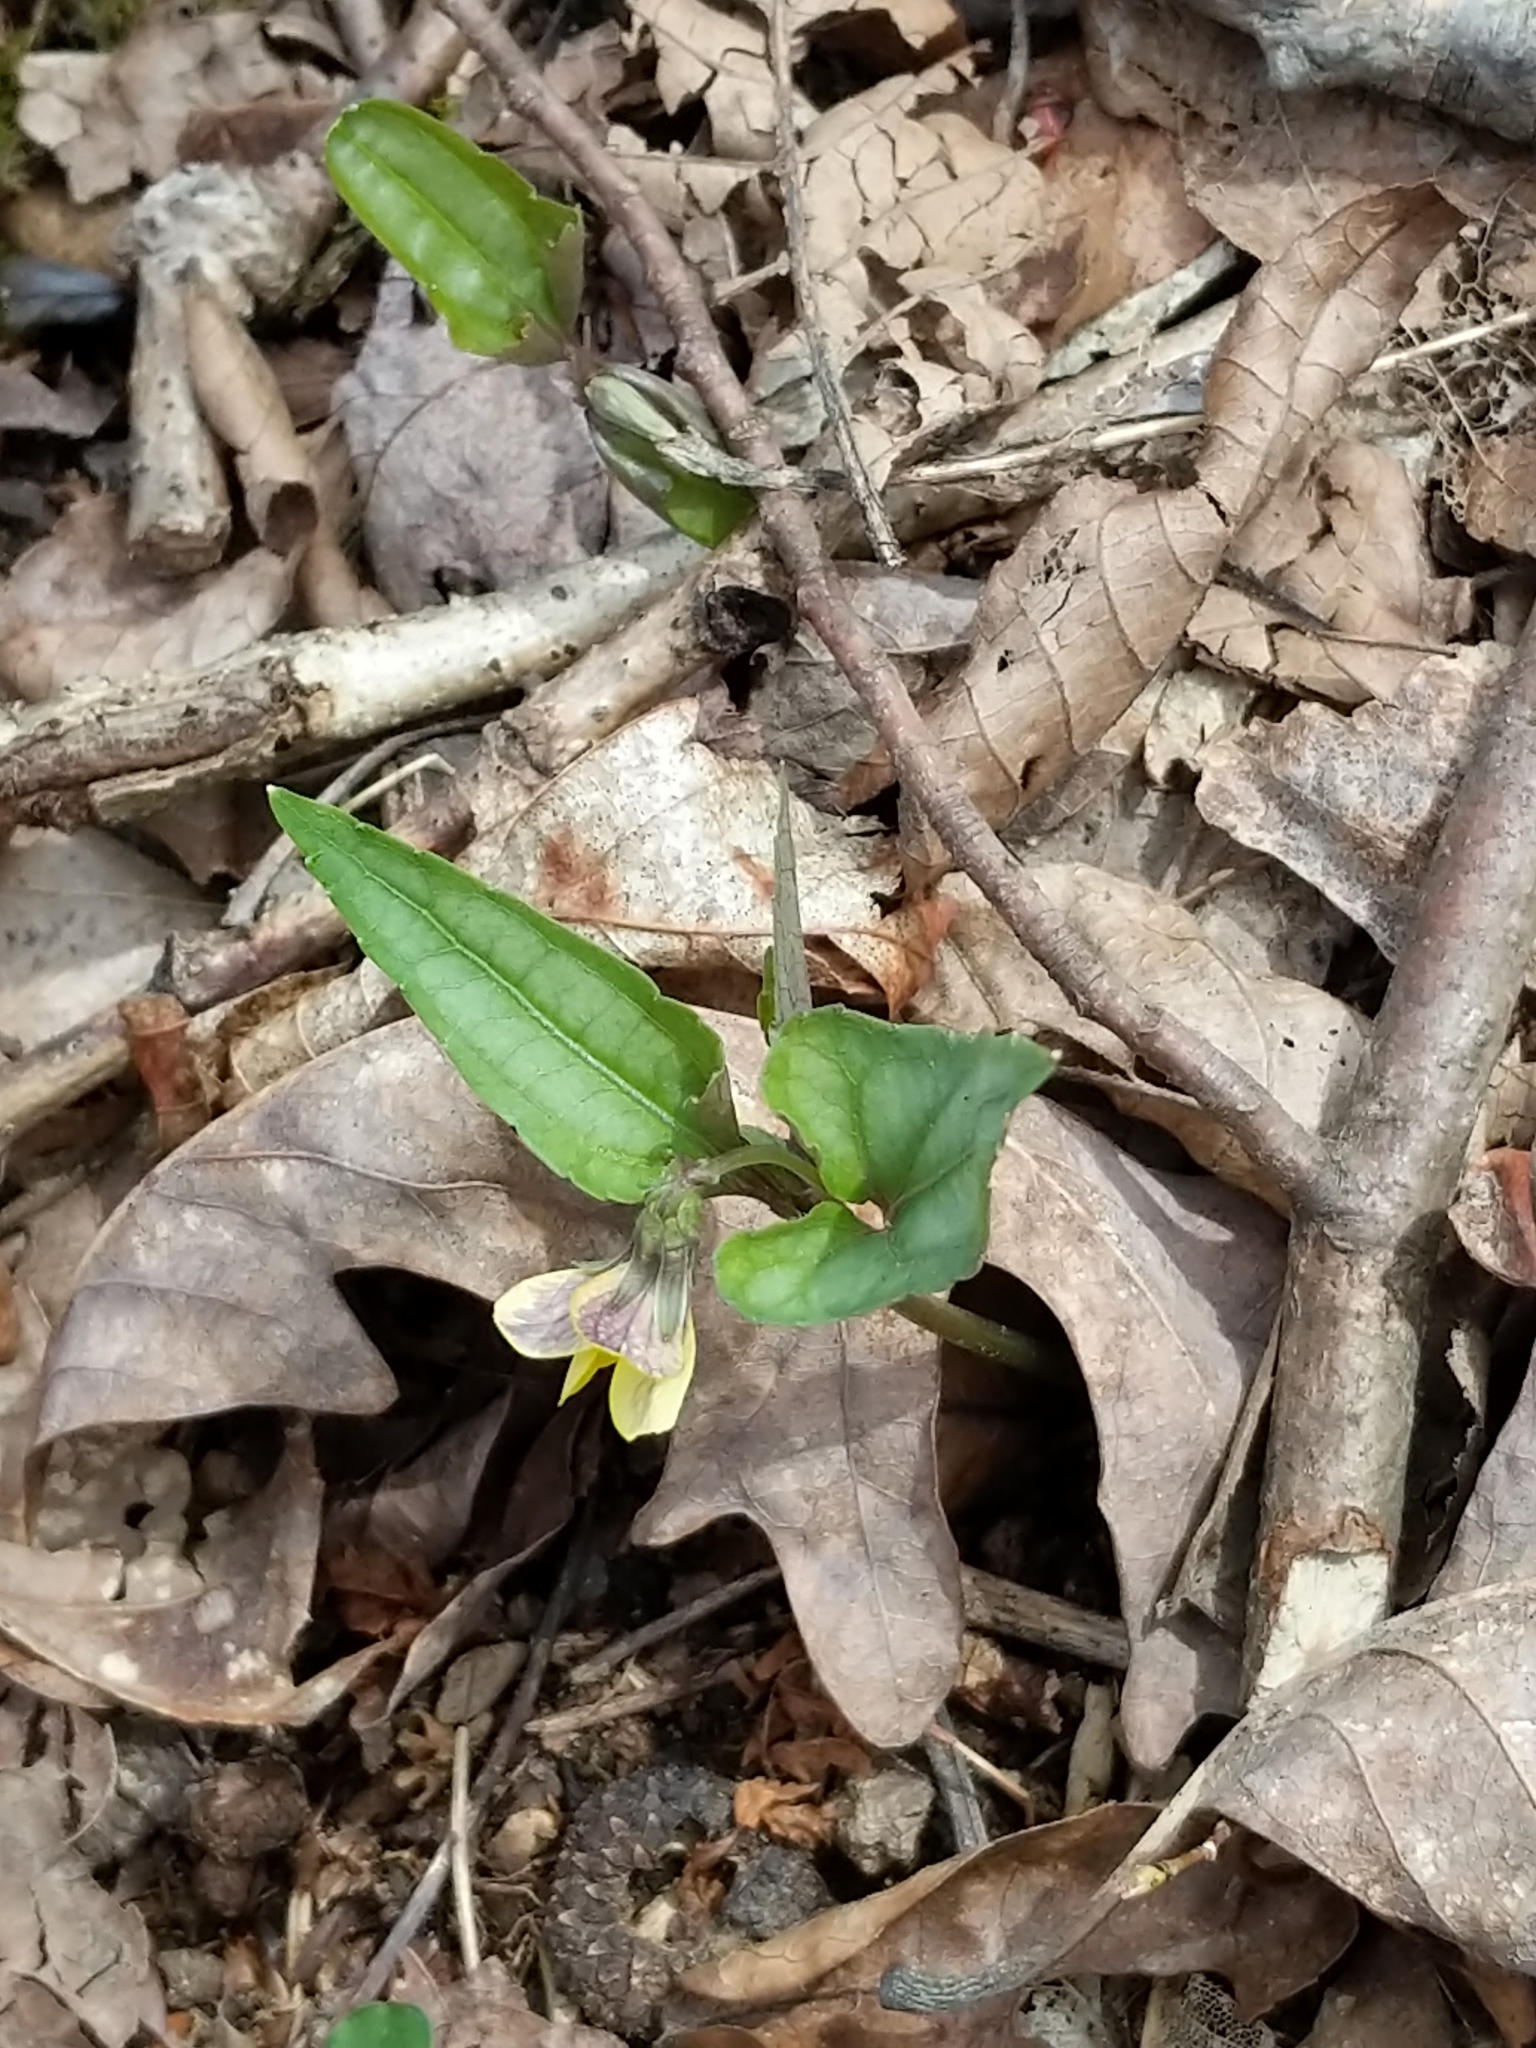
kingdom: Plantae
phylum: Tracheophyta
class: Magnoliopsida
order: Malpighiales
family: Violaceae
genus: Viola
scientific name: Viola hastata
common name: Spear-leaf violet
